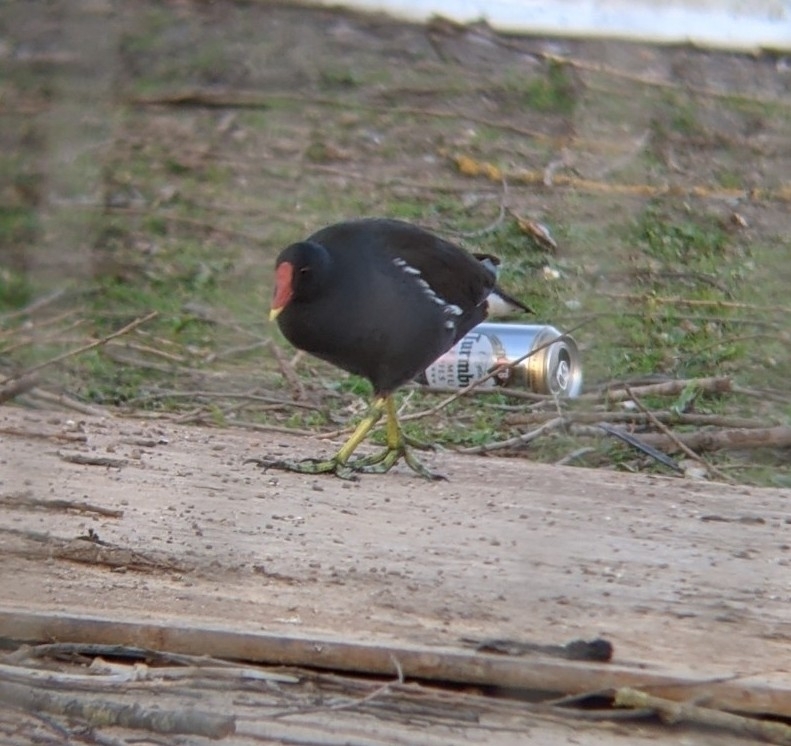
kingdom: Animalia
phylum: Chordata
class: Aves
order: Gruiformes
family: Rallidae
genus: Gallinula
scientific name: Gallinula chloropus
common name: Common moorhen
